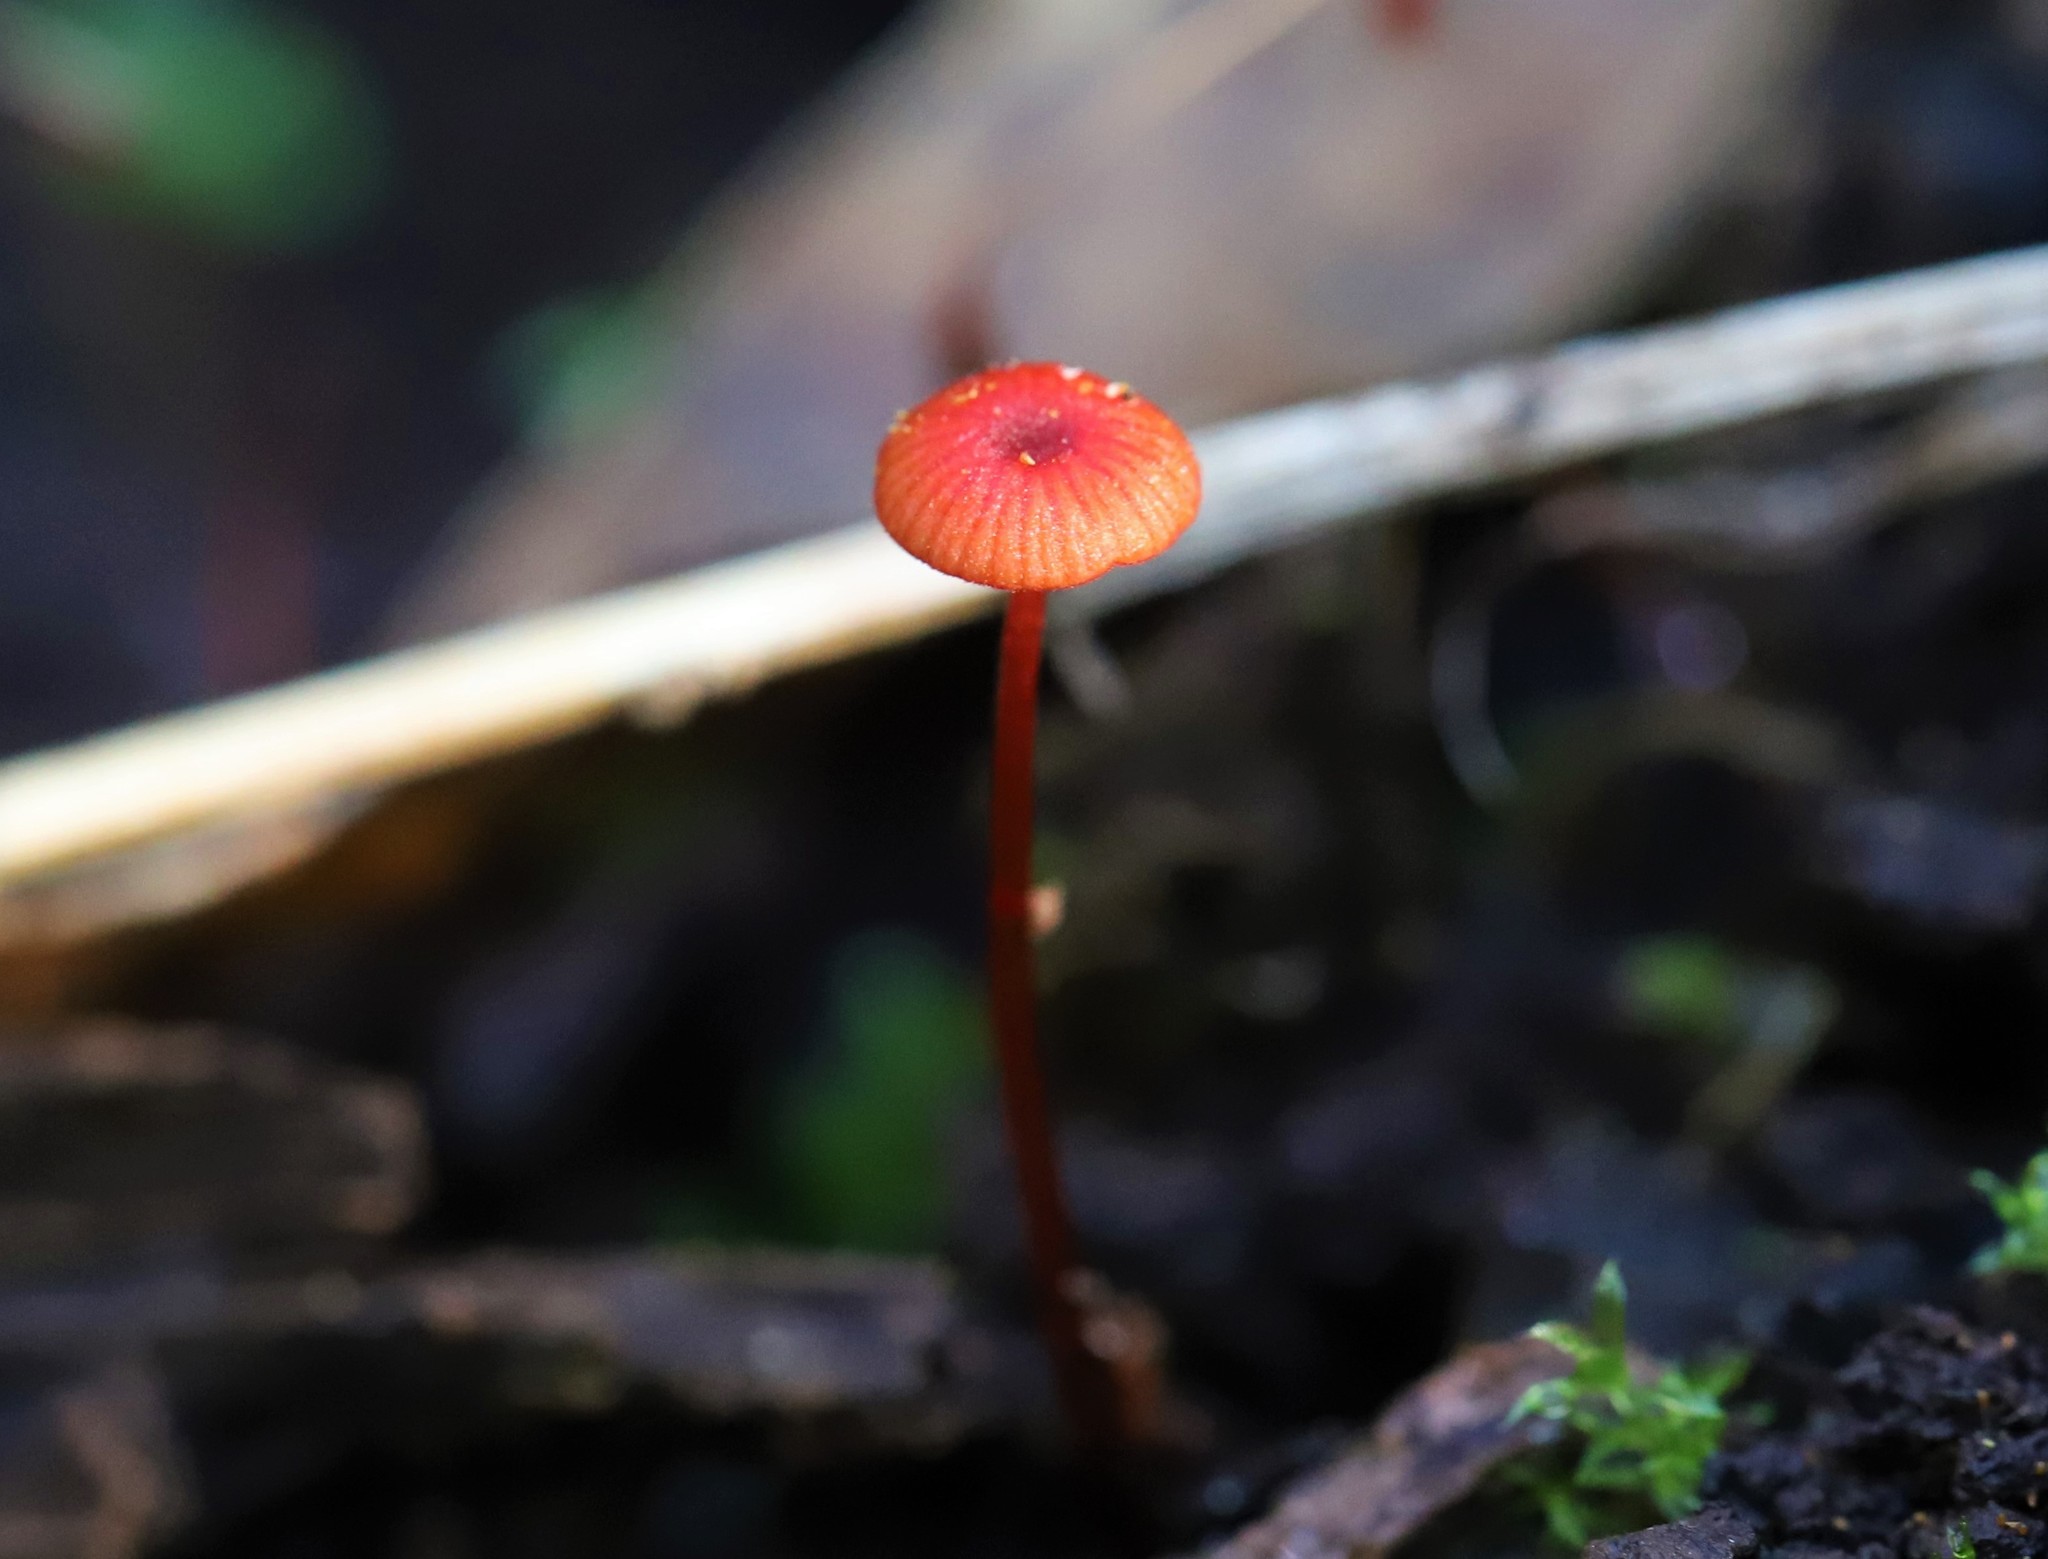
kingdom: Fungi
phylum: Basidiomycota
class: Agaricomycetes
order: Agaricales
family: Mycenaceae
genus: Cruentomycena
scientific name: Cruentomycena viscidocruenta
